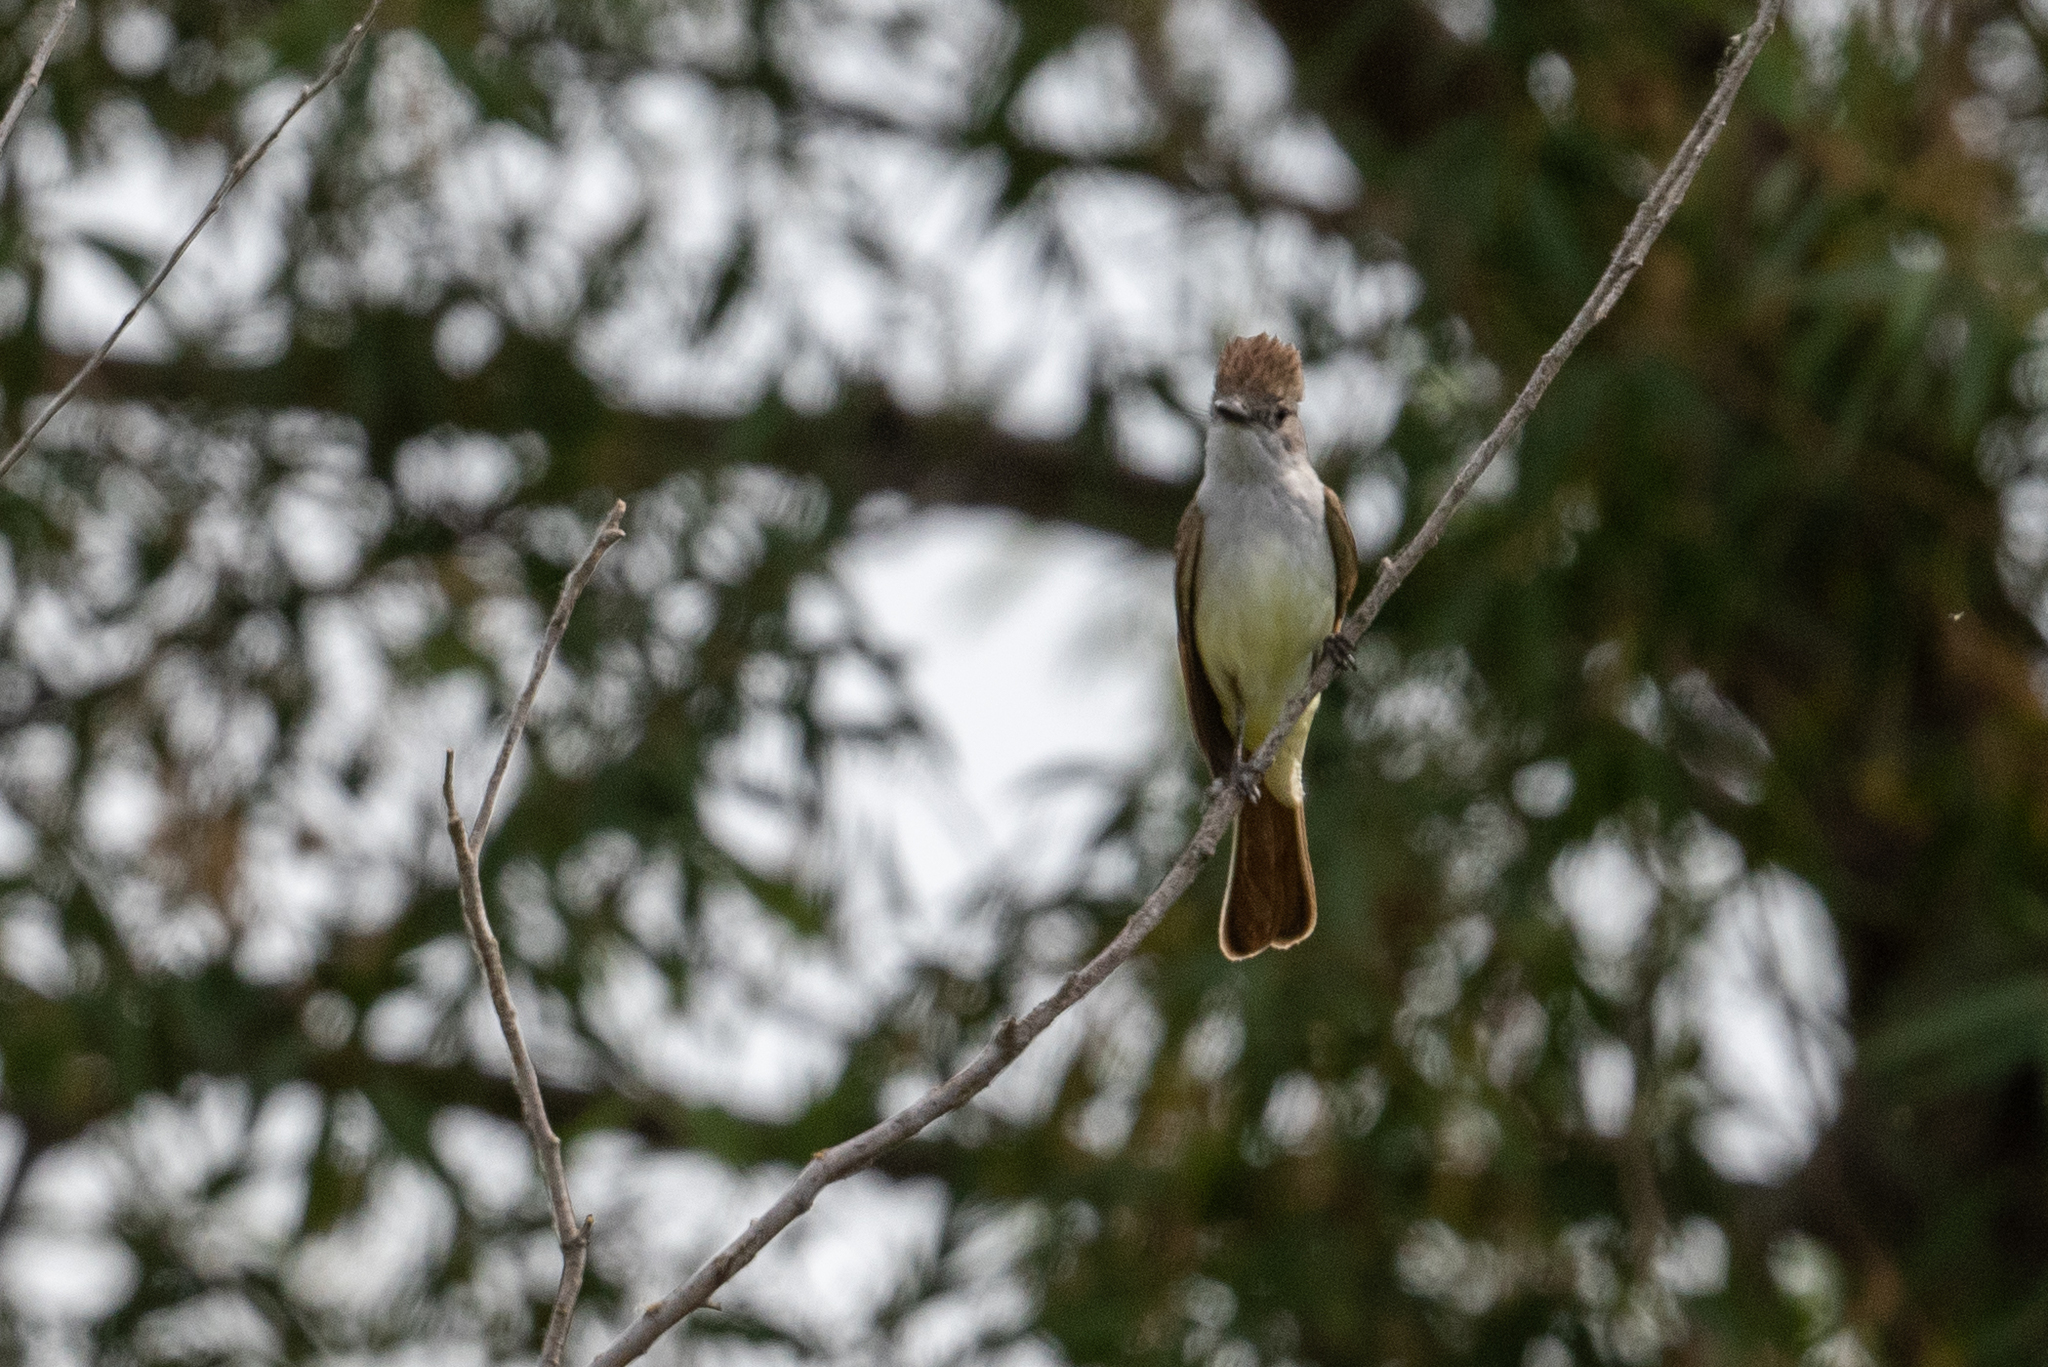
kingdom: Animalia
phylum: Chordata
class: Aves
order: Passeriformes
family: Tyrannidae
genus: Myiarchus
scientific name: Myiarchus cinerascens
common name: Ash-throated flycatcher
